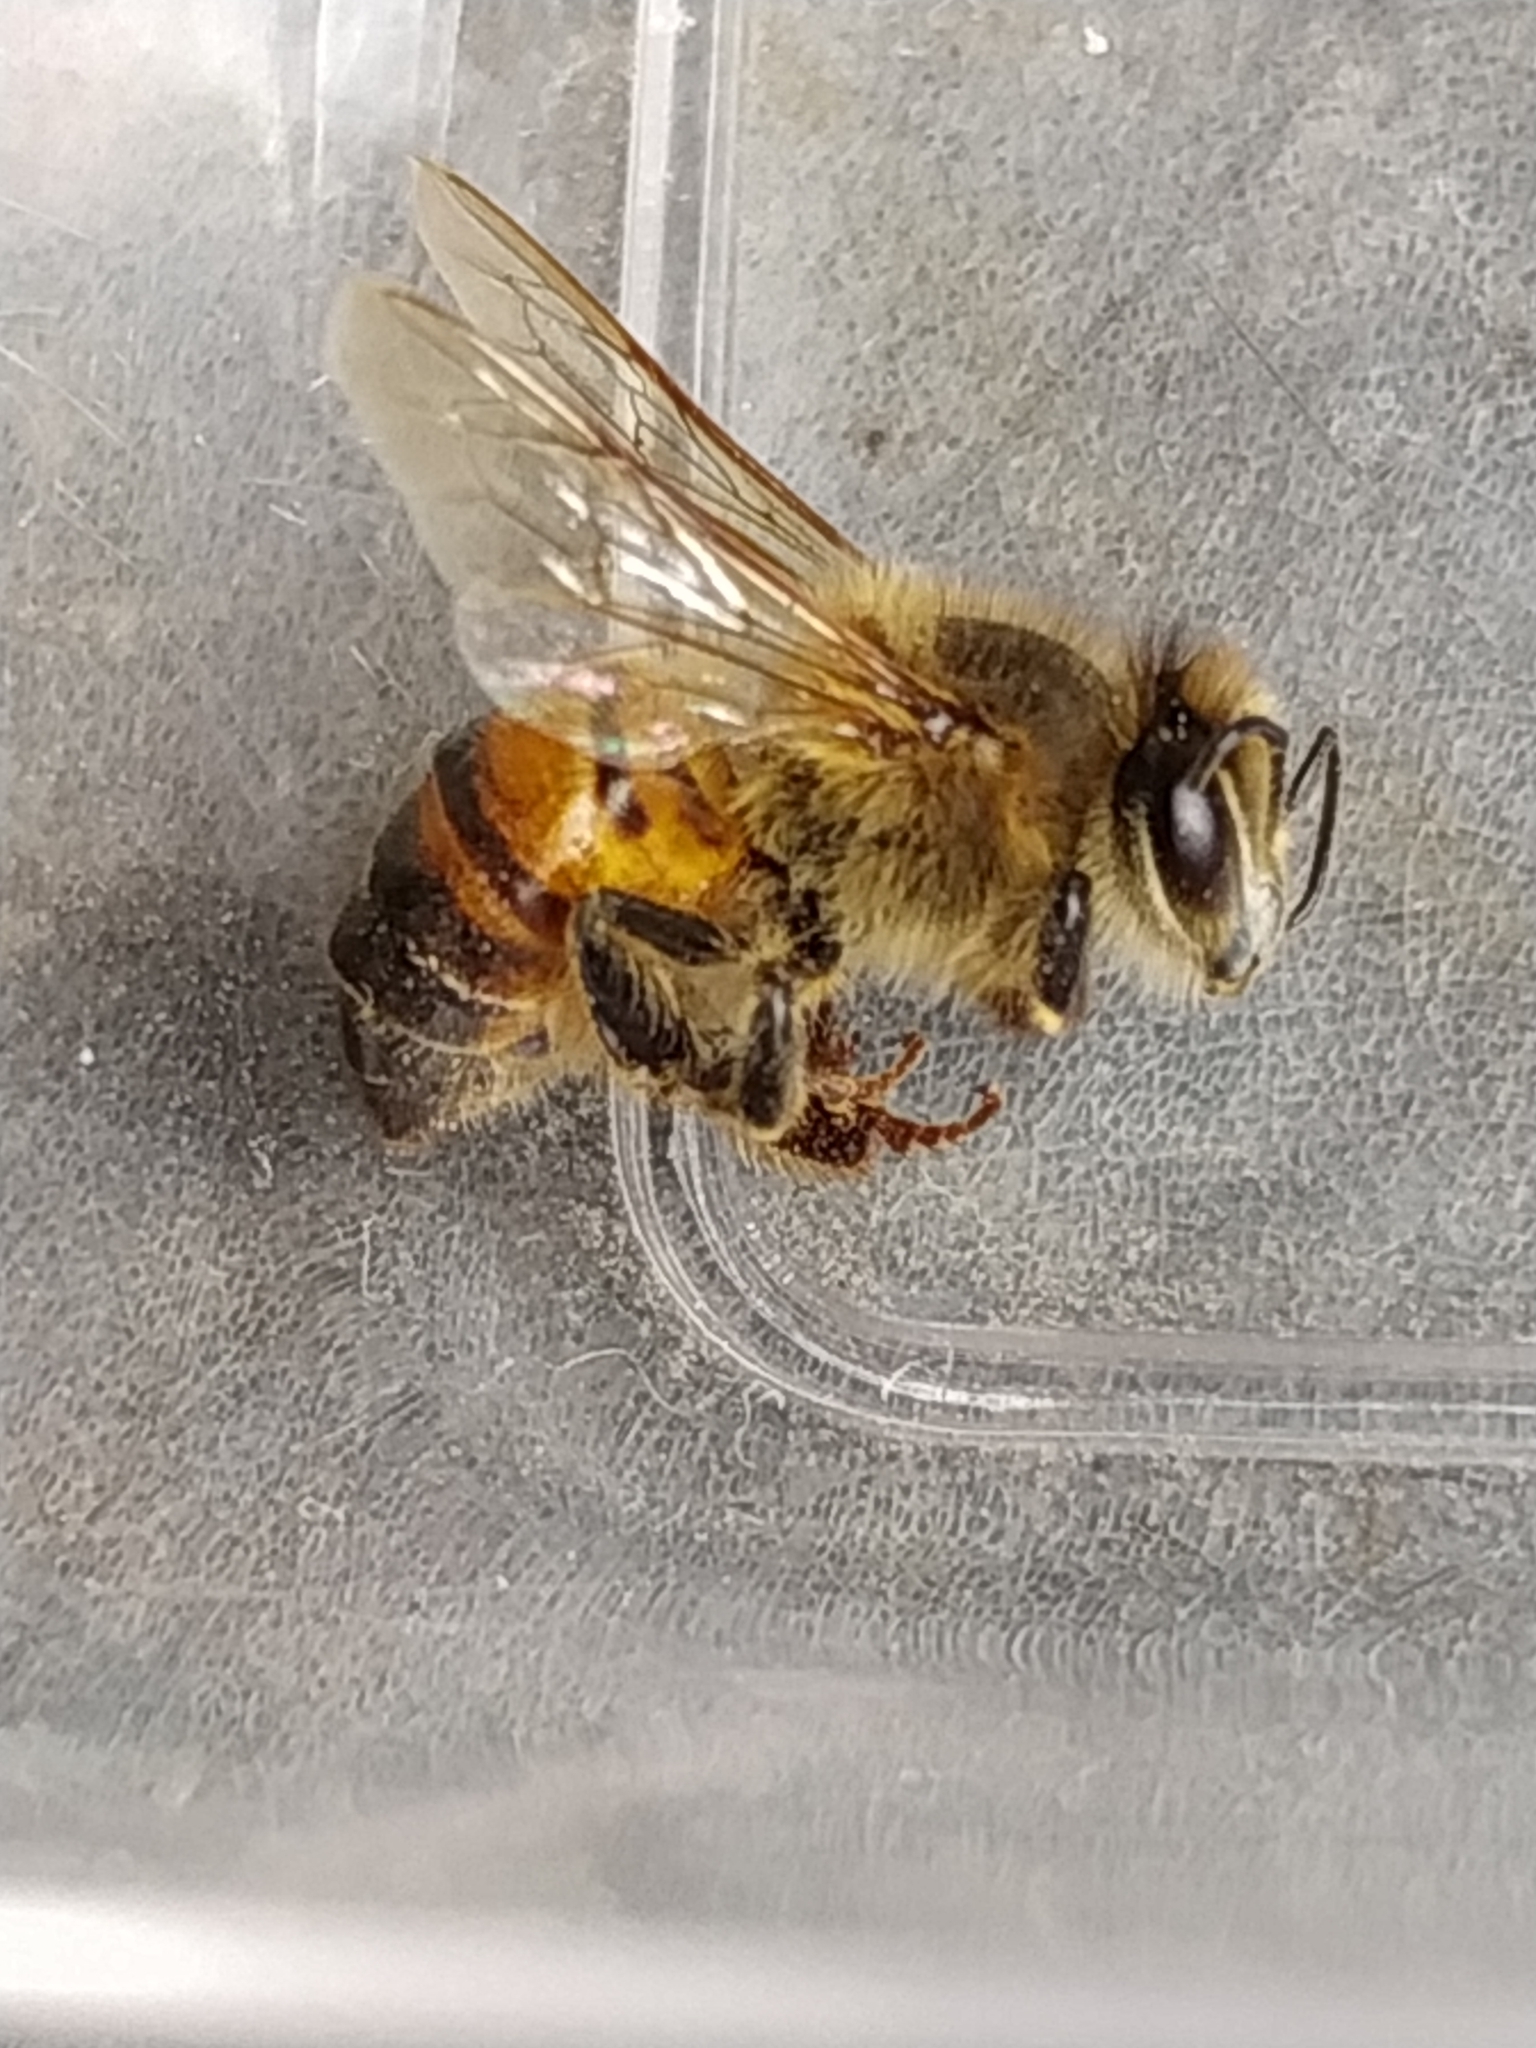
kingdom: Animalia
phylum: Arthropoda
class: Insecta
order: Hymenoptera
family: Apidae
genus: Apis
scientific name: Apis mellifera
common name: Honey bee
